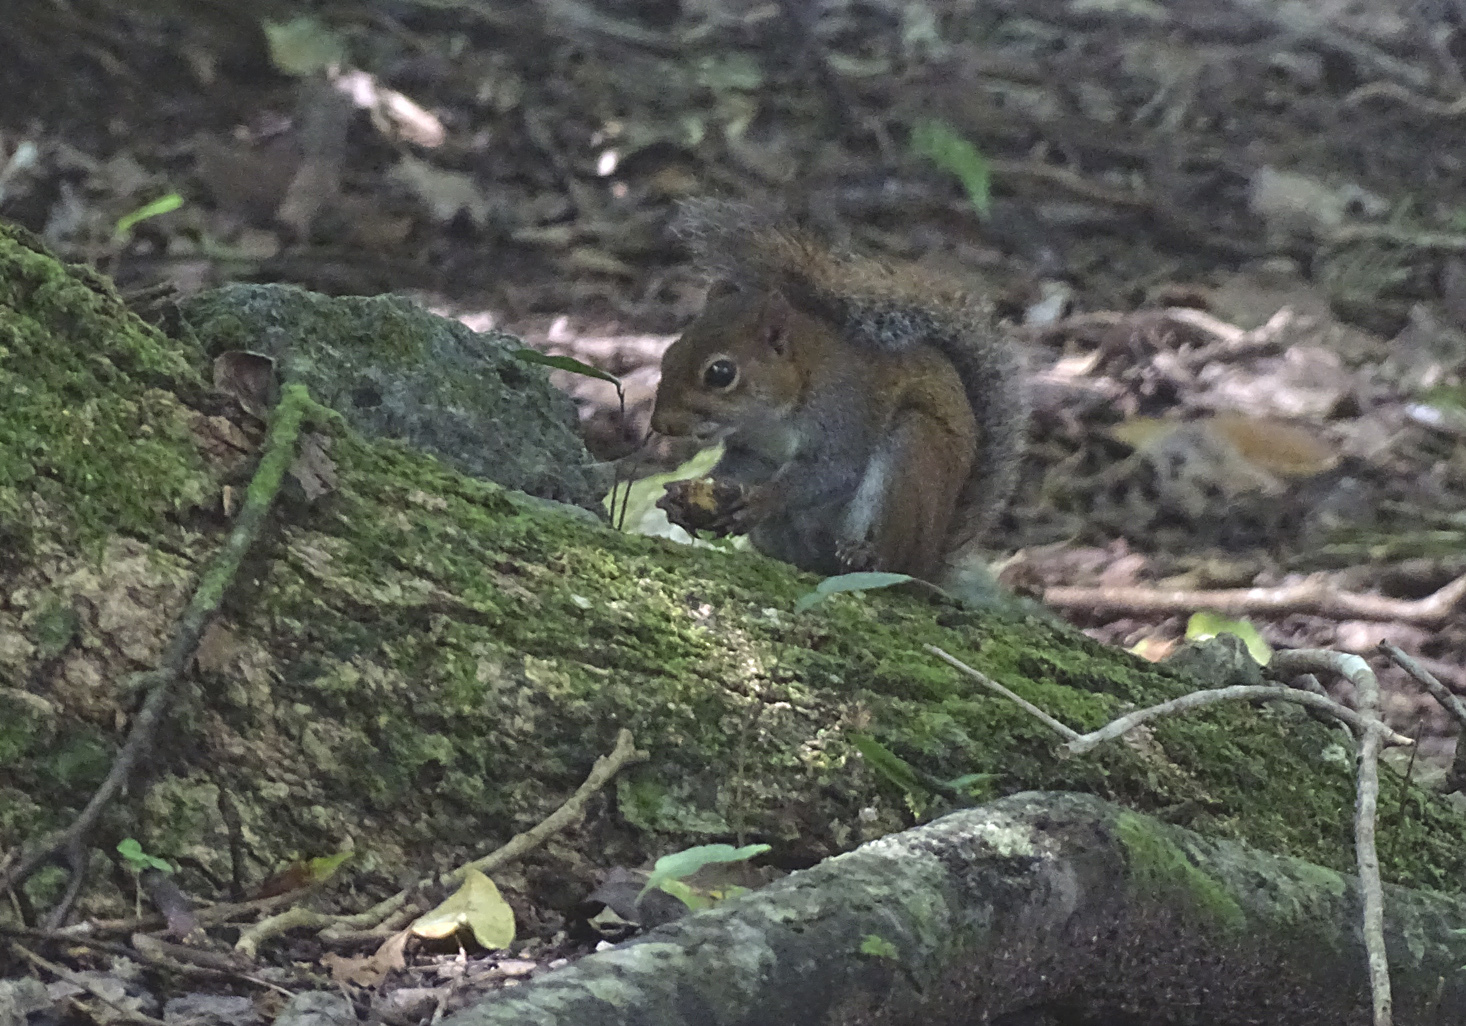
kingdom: Animalia
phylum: Chordata
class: Mammalia
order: Rodentia
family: Sciuridae
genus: Sciurus
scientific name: Sciurus deppei
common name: Deppe's squirrel
